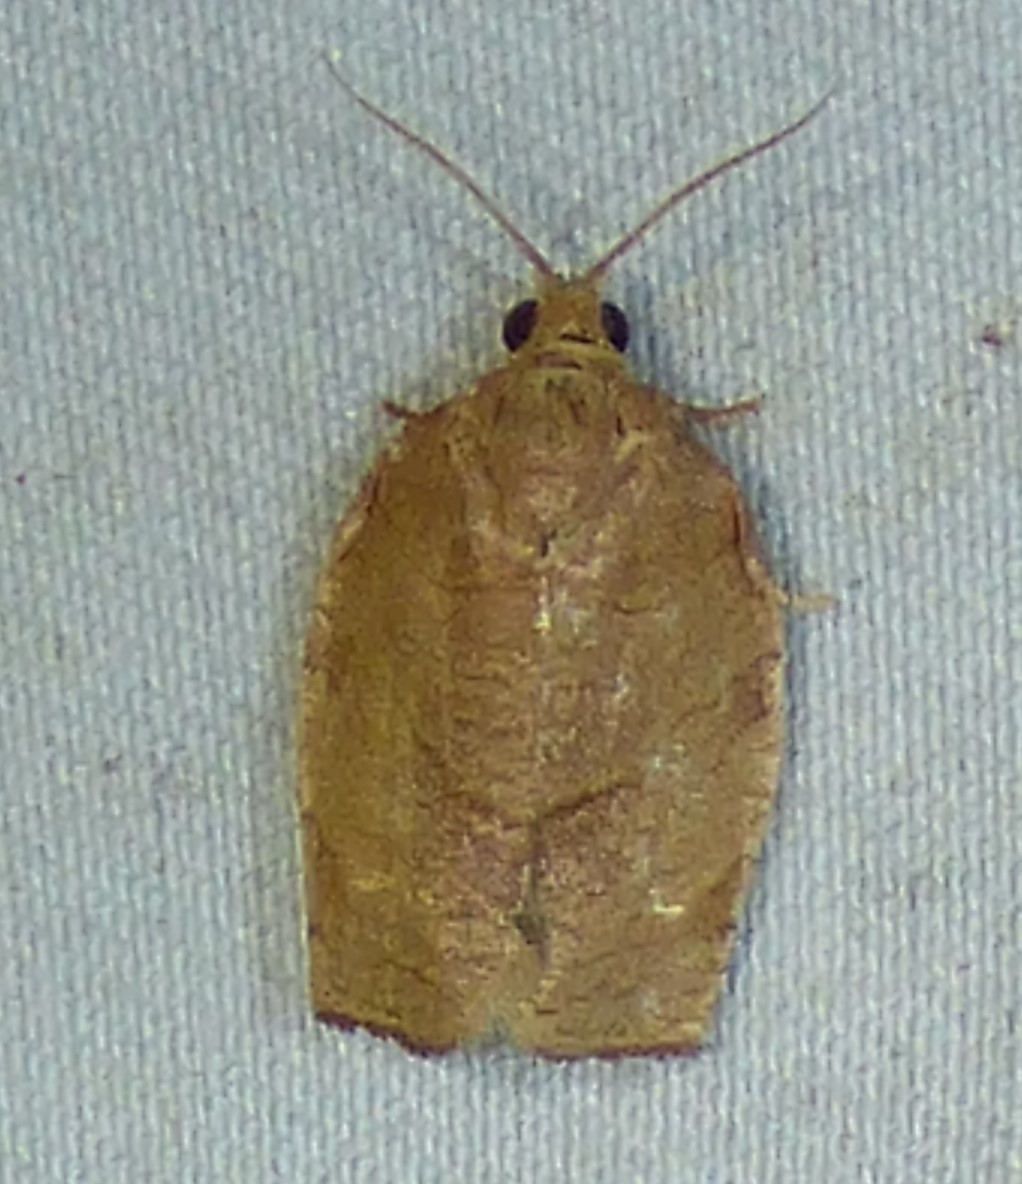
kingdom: Animalia
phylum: Arthropoda
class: Insecta
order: Lepidoptera
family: Tortricidae
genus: Choristoneura
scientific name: Choristoneura rosaceana
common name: Oblique-banded leafroller moth
